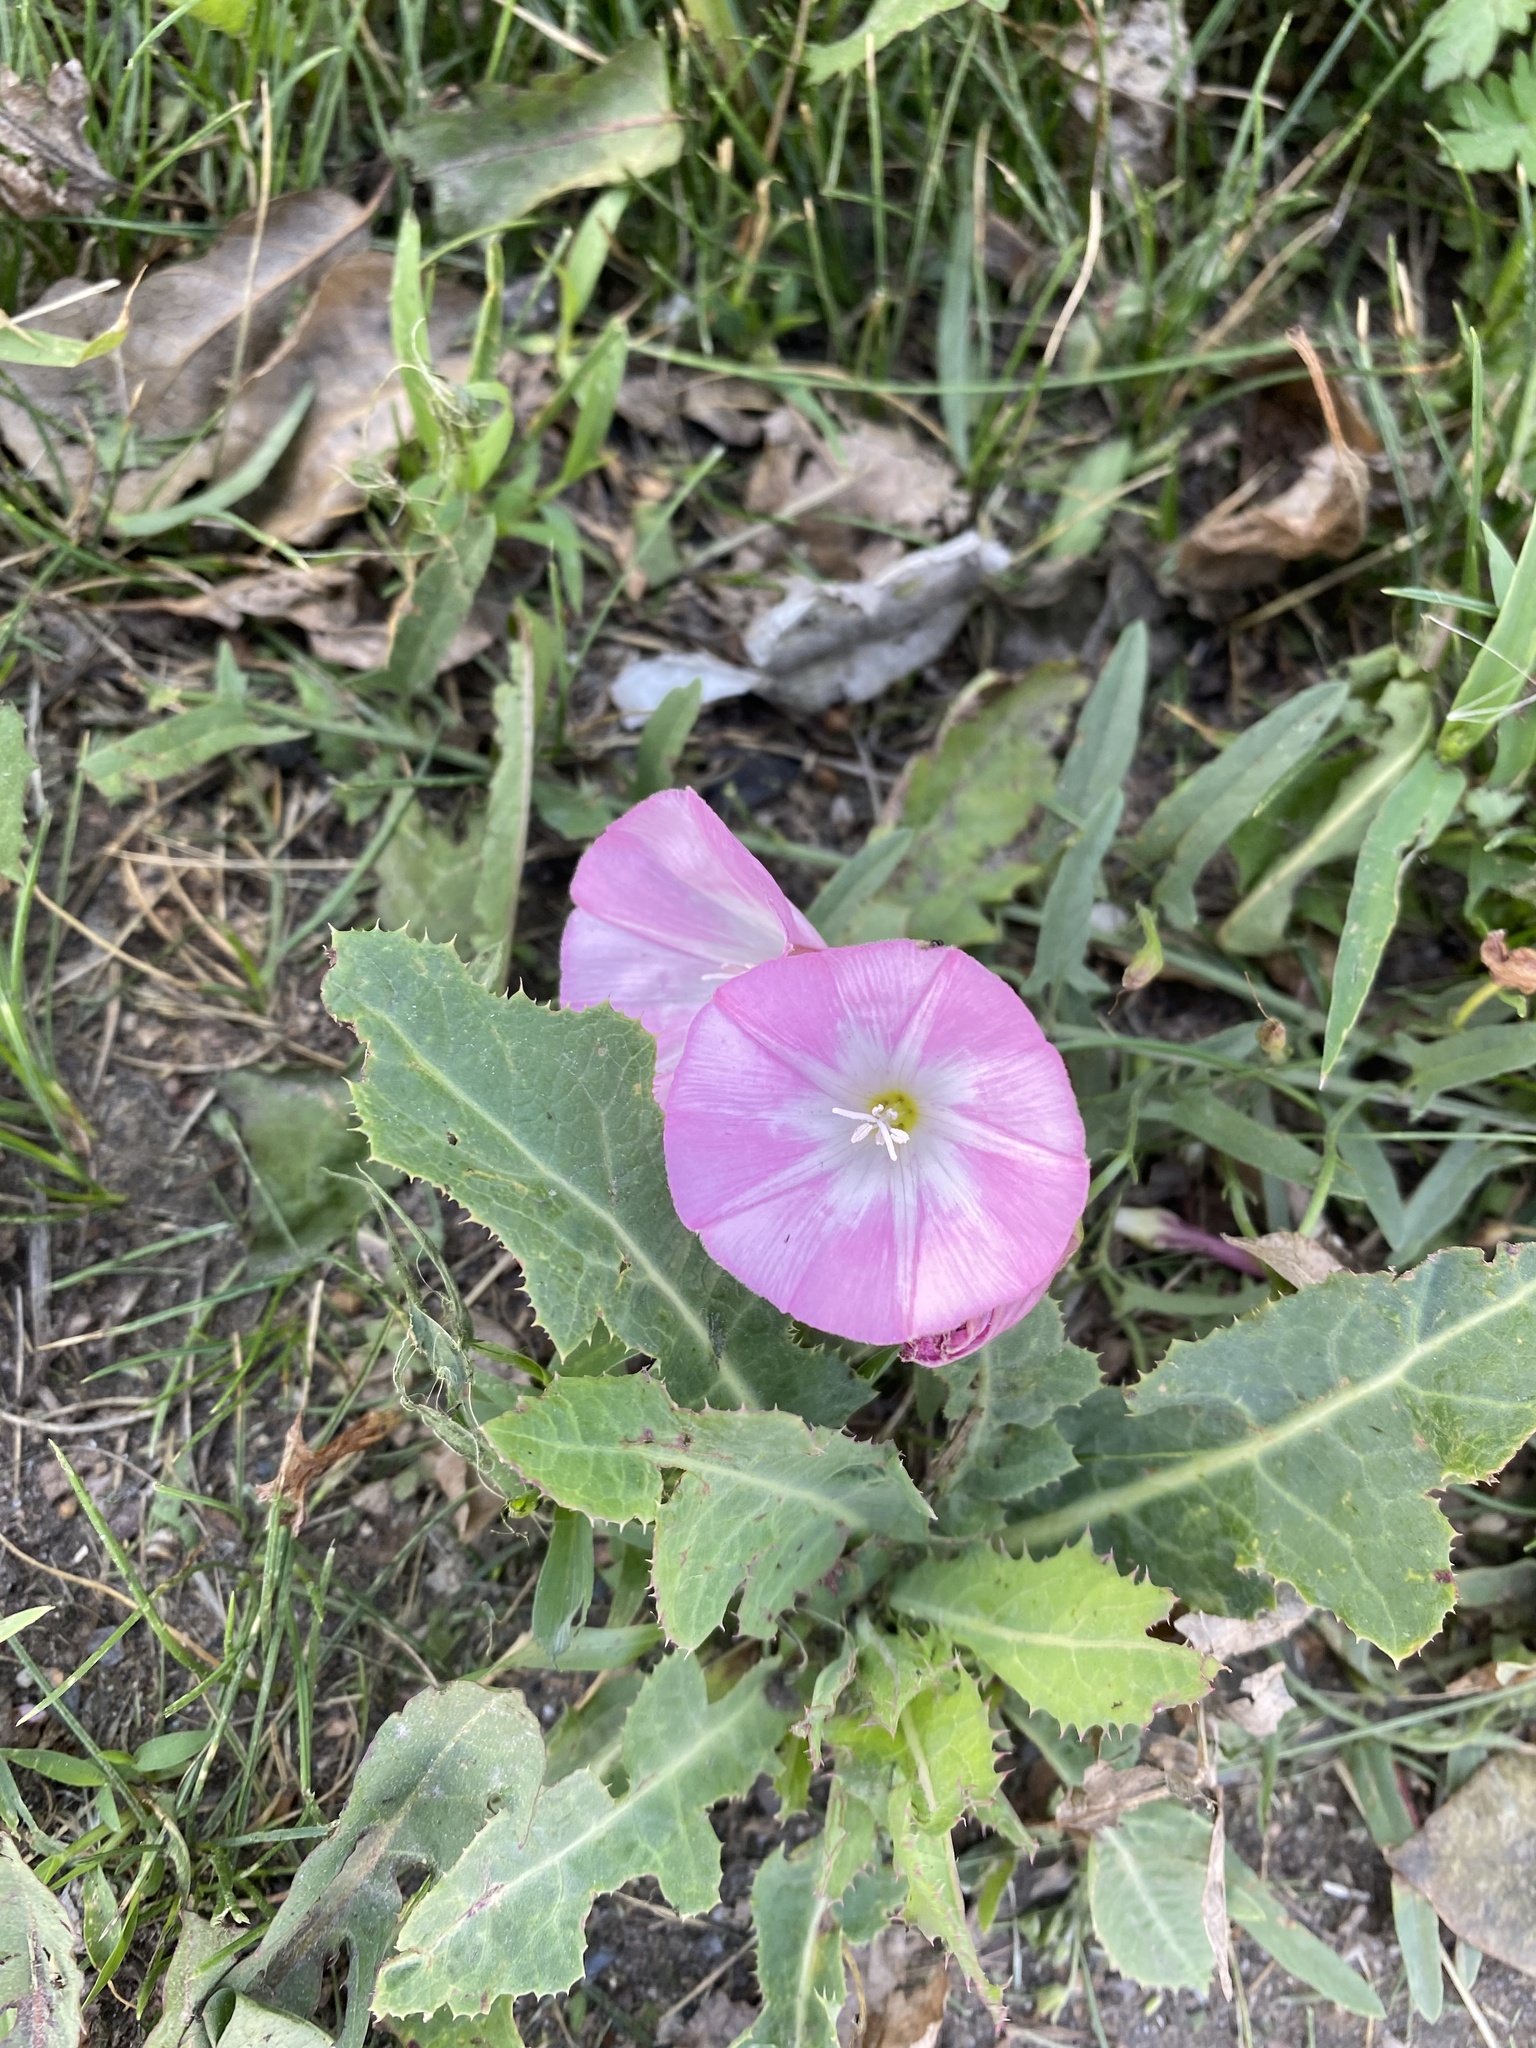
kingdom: Plantae
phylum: Tracheophyta
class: Magnoliopsida
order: Solanales
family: Convolvulaceae
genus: Convolvulus
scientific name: Convolvulus arvensis
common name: Field bindweed
